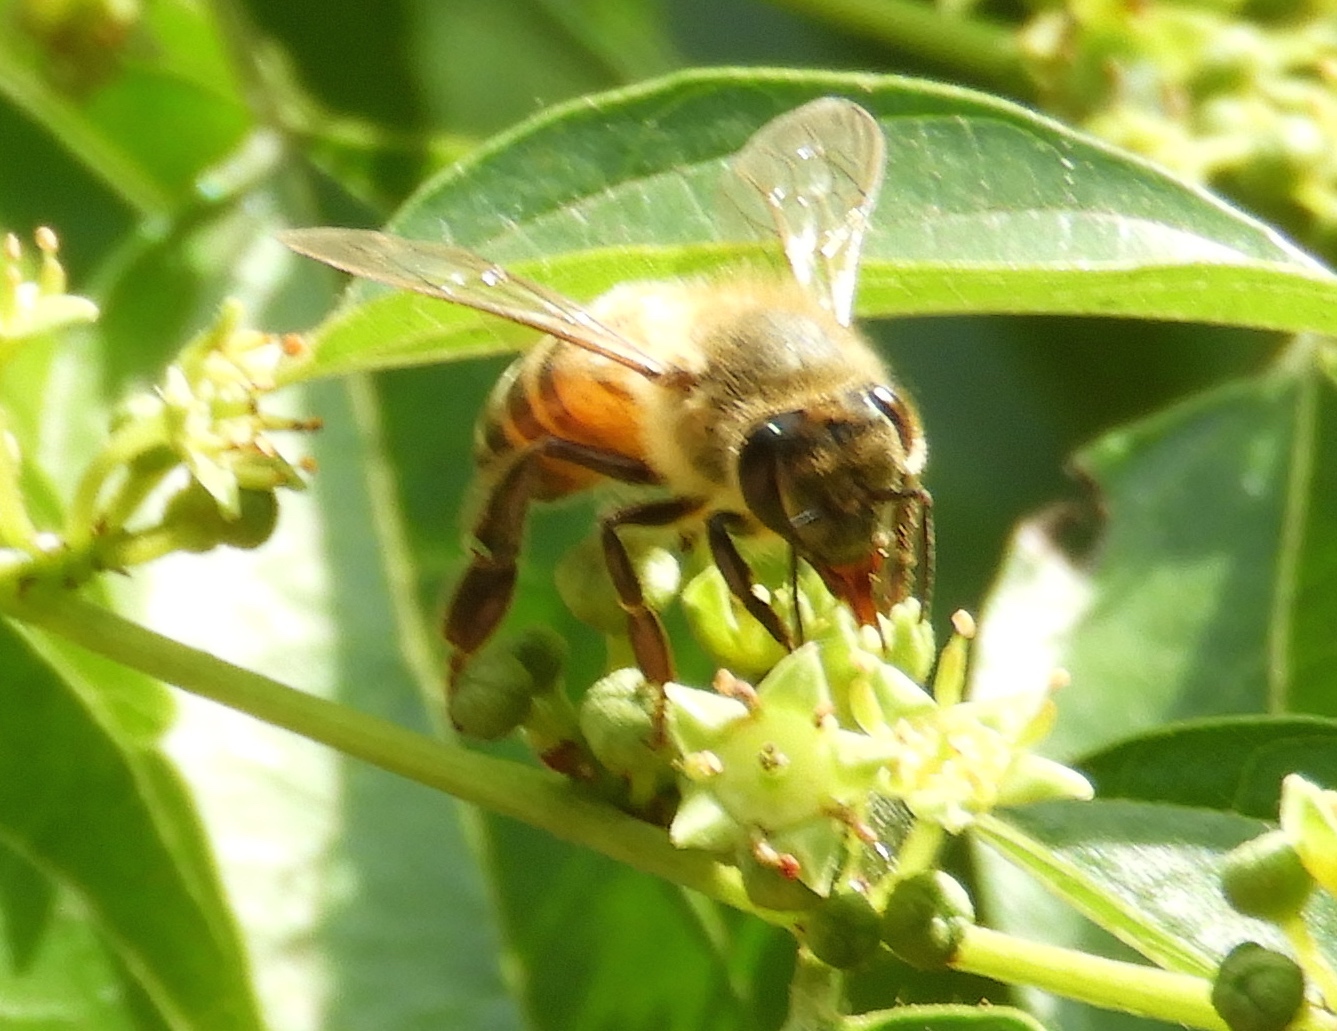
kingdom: Animalia
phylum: Arthropoda
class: Insecta
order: Hymenoptera
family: Apidae
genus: Apis
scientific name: Apis mellifera
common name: Honey bee
